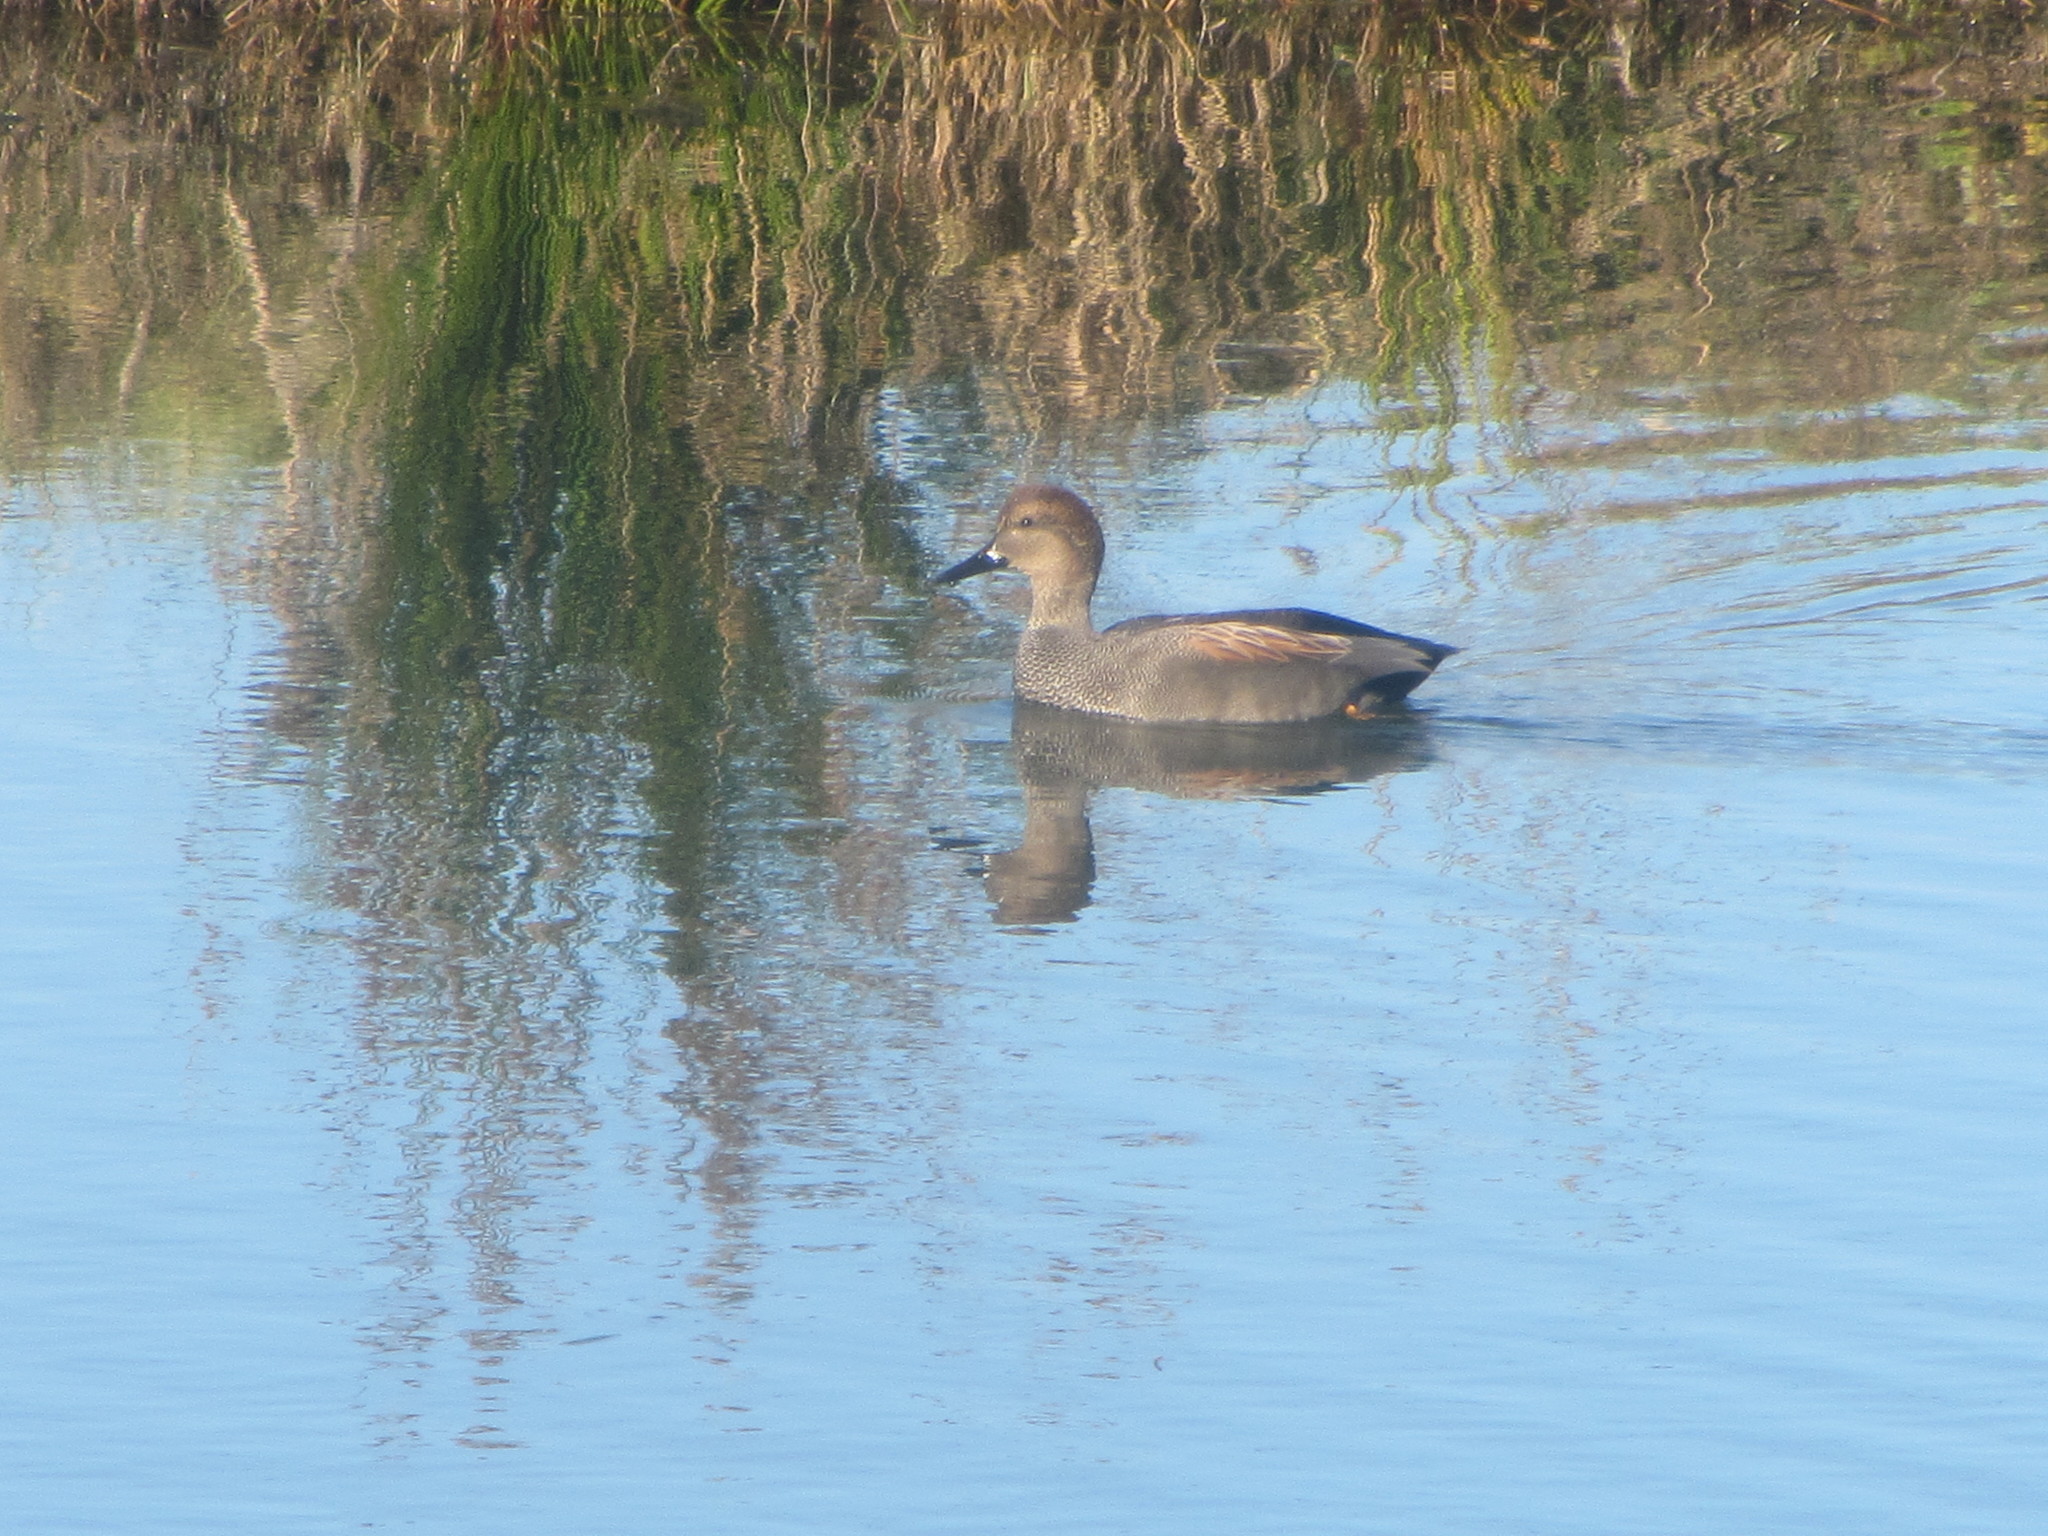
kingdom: Animalia
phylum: Chordata
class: Aves
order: Anseriformes
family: Anatidae
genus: Mareca
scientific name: Mareca strepera
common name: Gadwall
